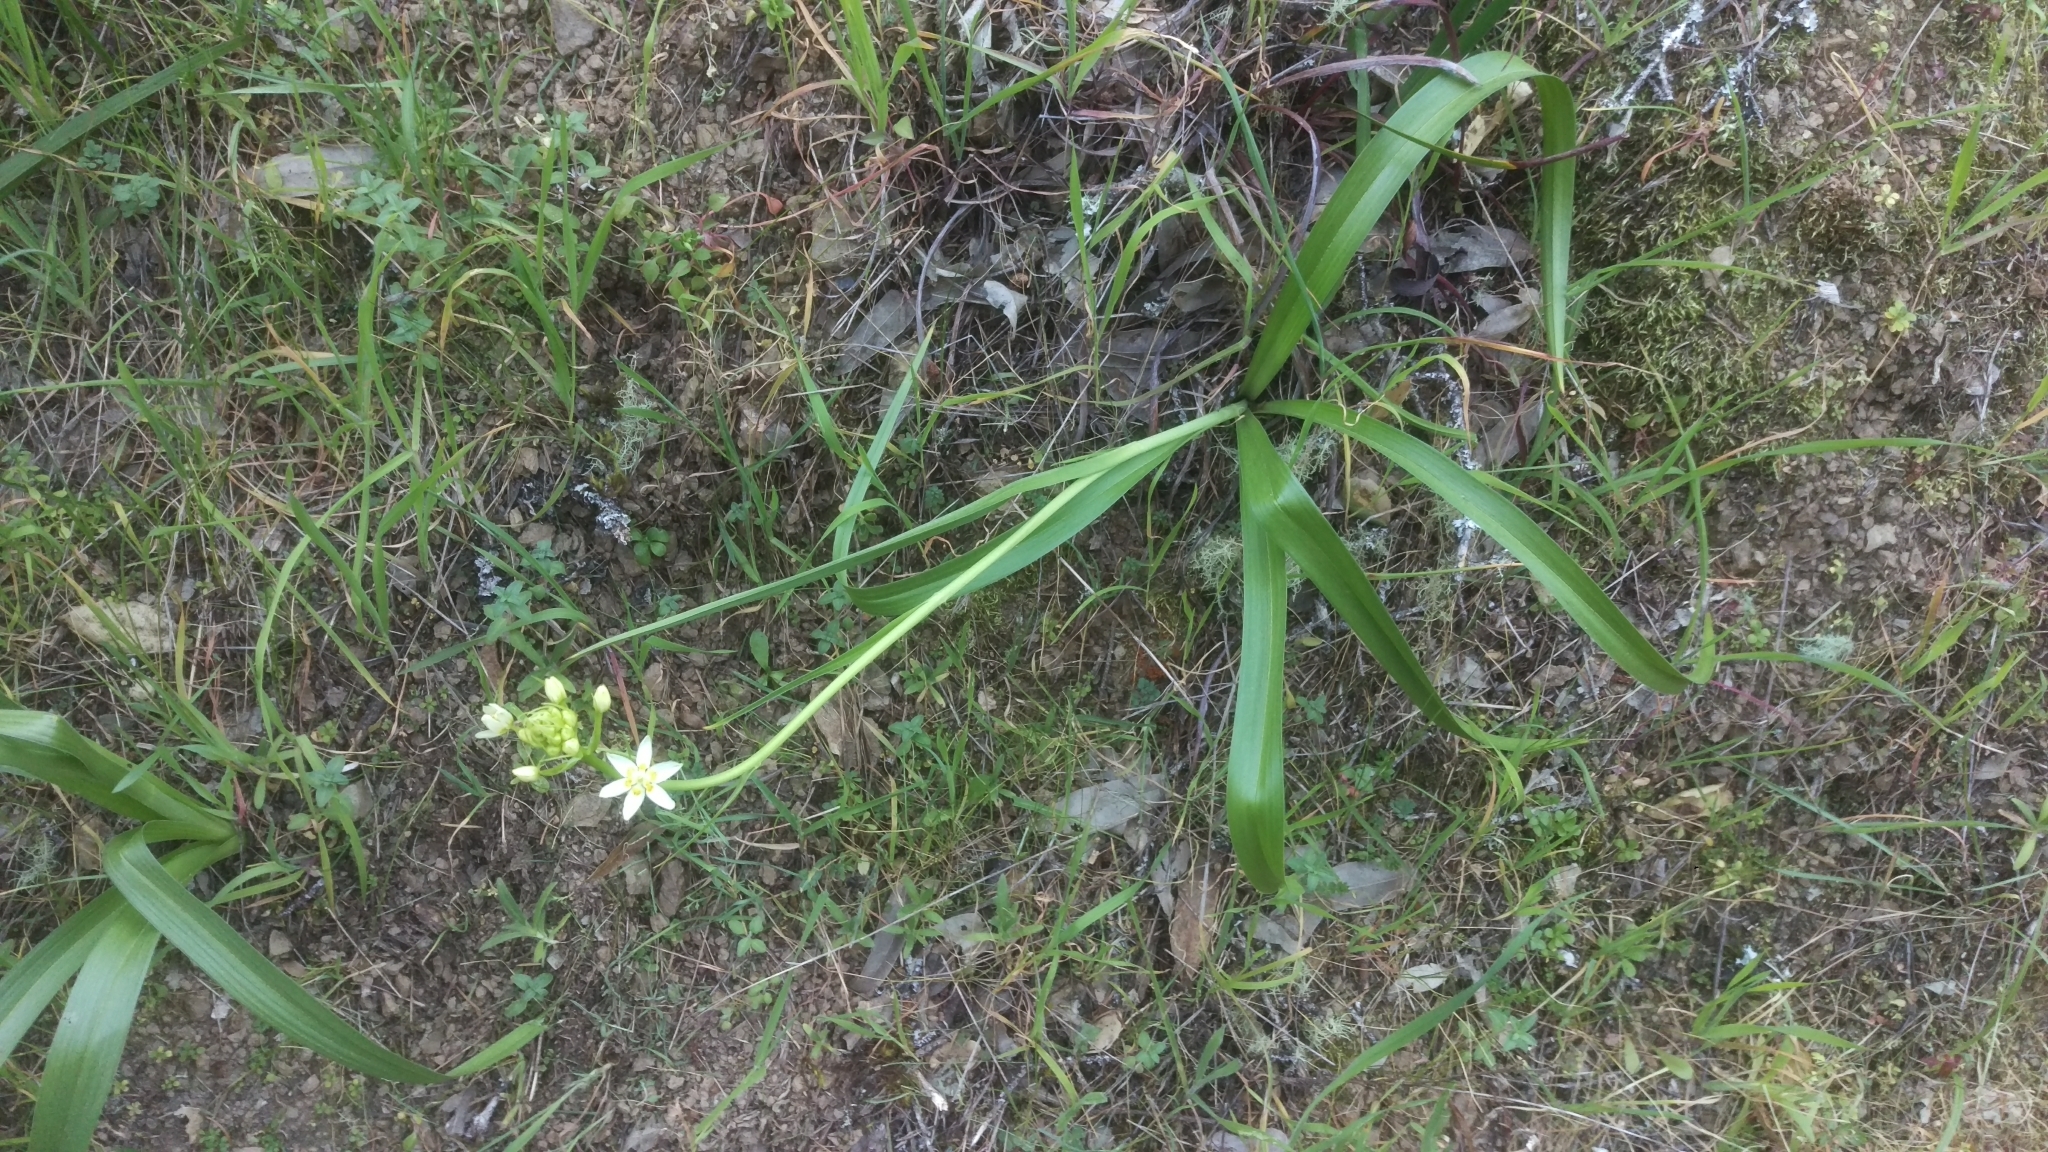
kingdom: Plantae
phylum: Tracheophyta
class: Liliopsida
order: Liliales
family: Melanthiaceae
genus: Toxicoscordion
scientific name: Toxicoscordion fremontii
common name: Fremont's death camas
